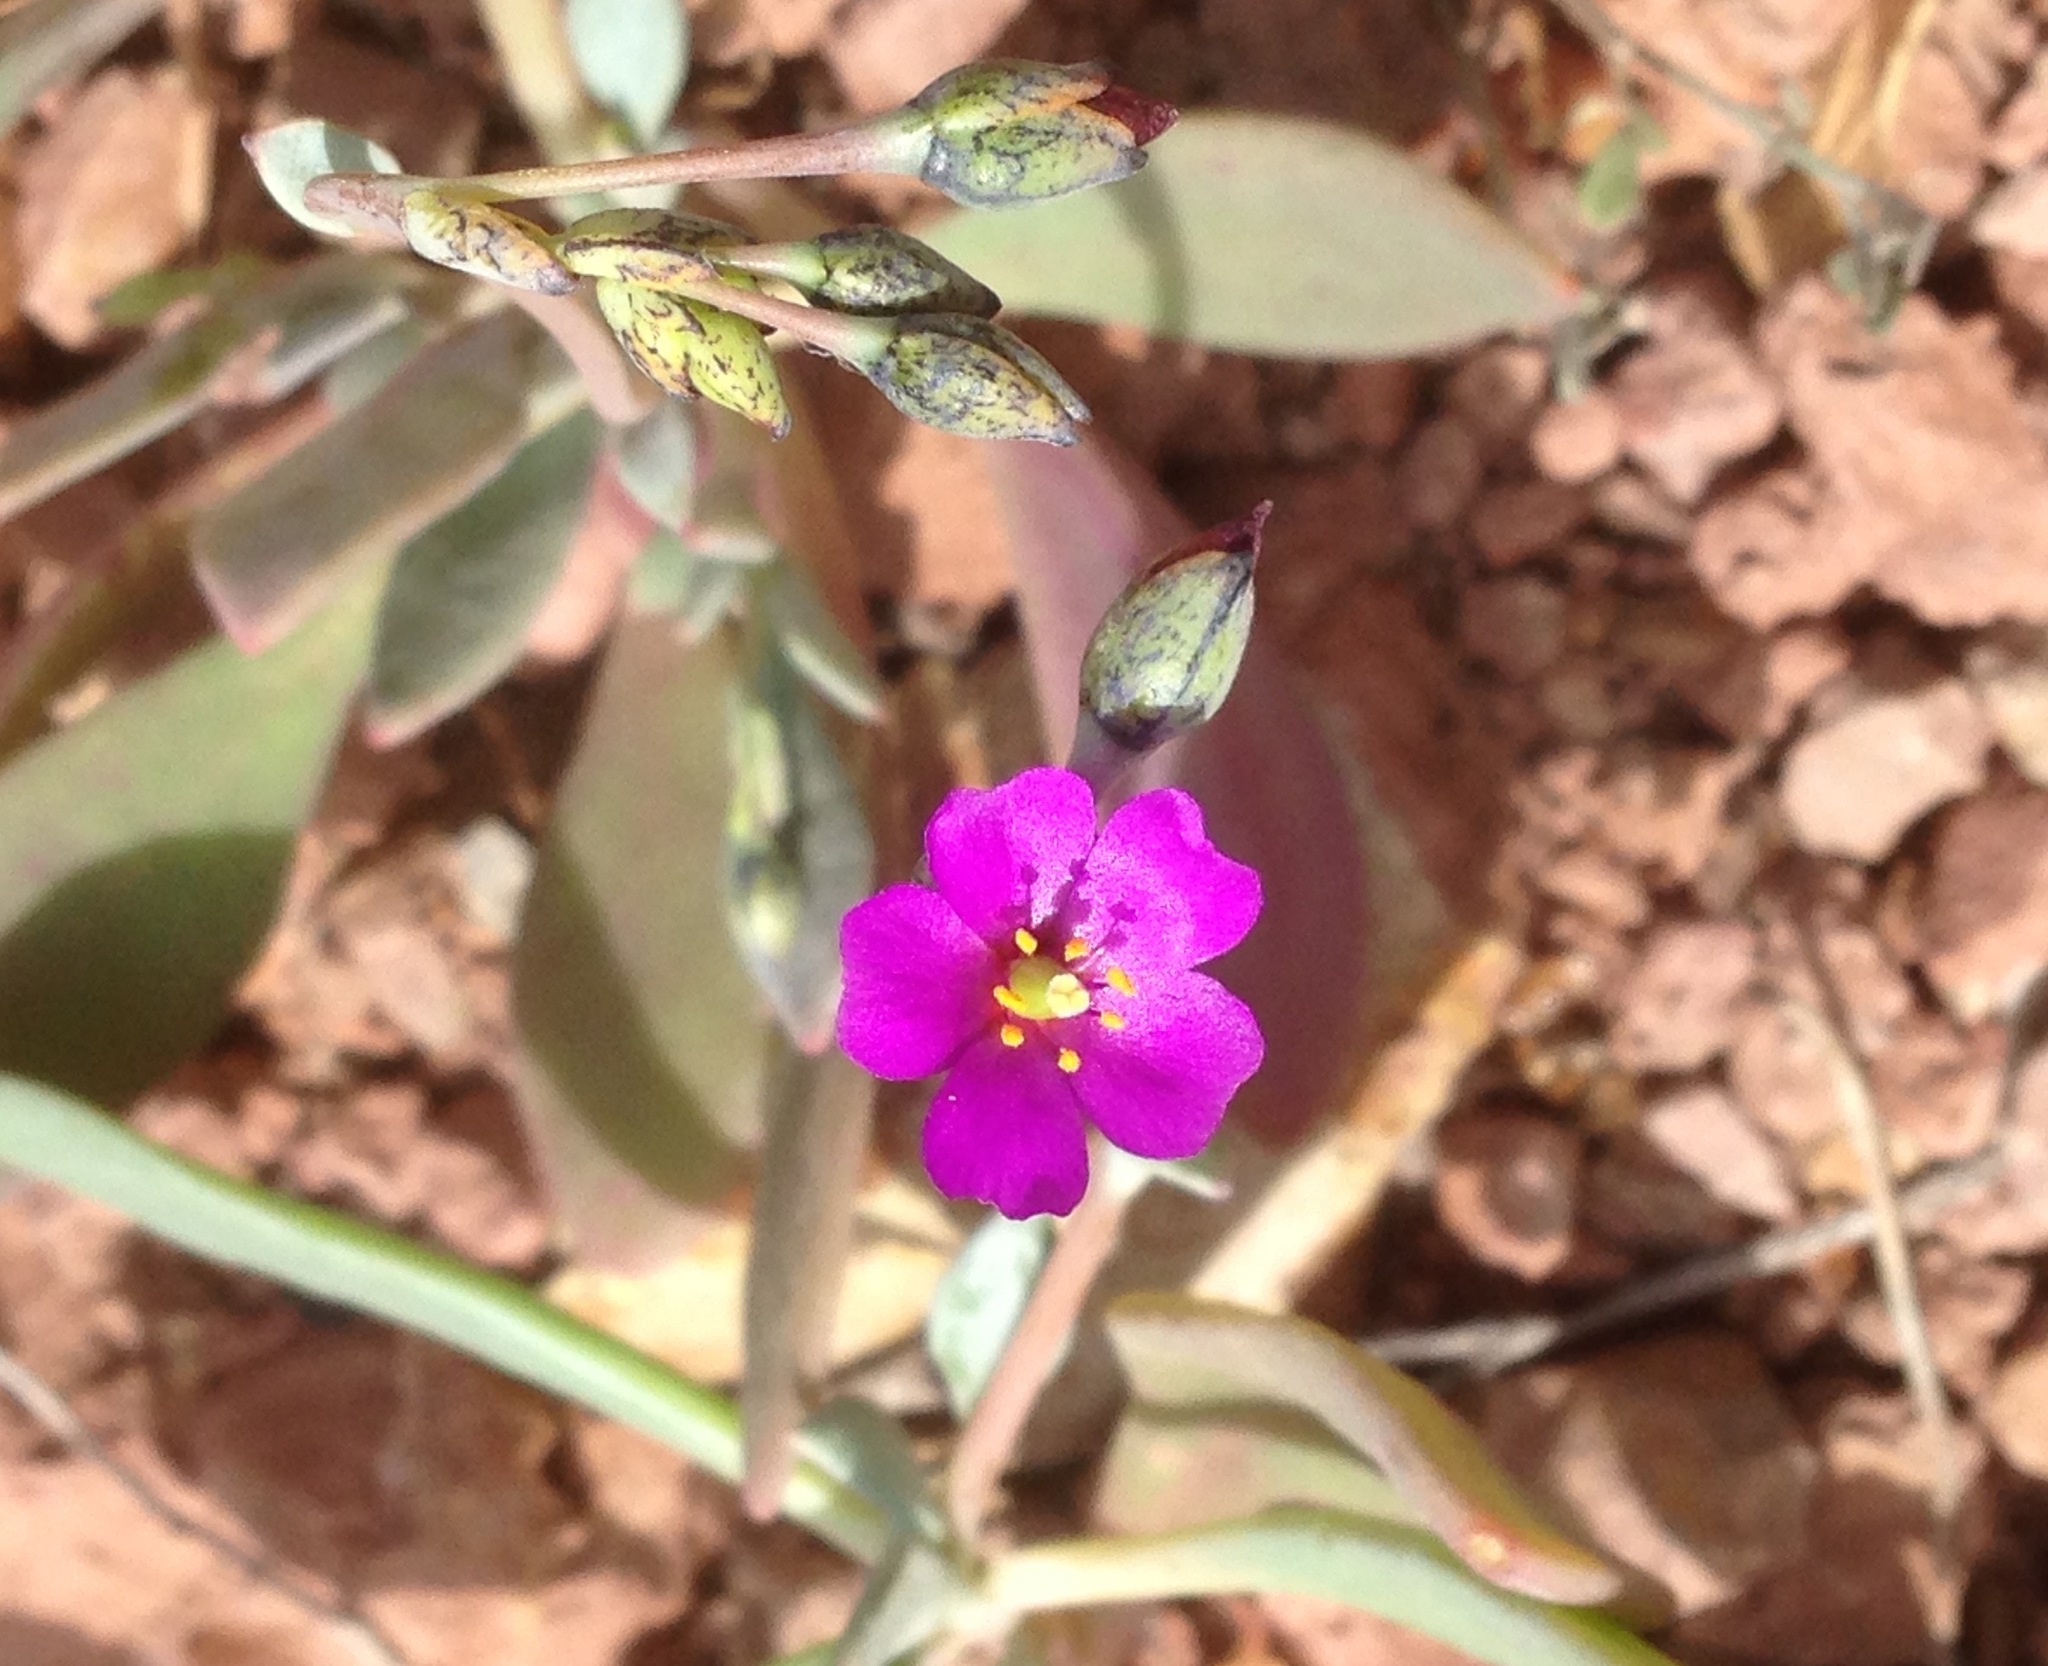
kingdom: Plantae
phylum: Tracheophyta
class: Magnoliopsida
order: Caryophyllales
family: Montiaceae
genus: Cistanthe
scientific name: Cistanthe maritima
